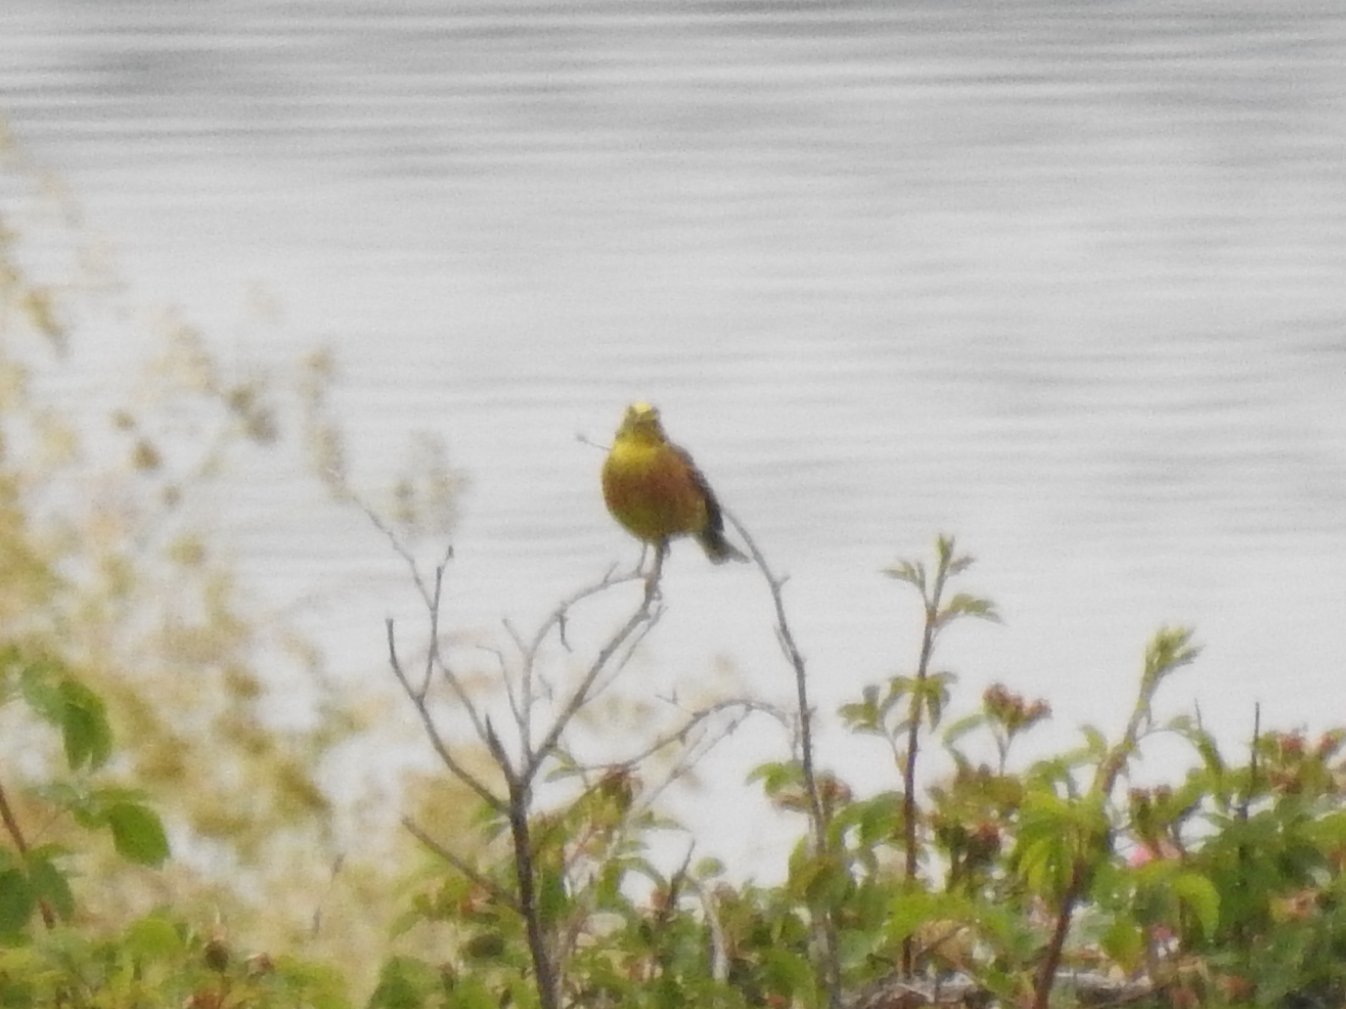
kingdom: Animalia
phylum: Chordata
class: Aves
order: Passeriformes
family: Emberizidae
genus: Emberiza
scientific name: Emberiza citrinella
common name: Yellowhammer
